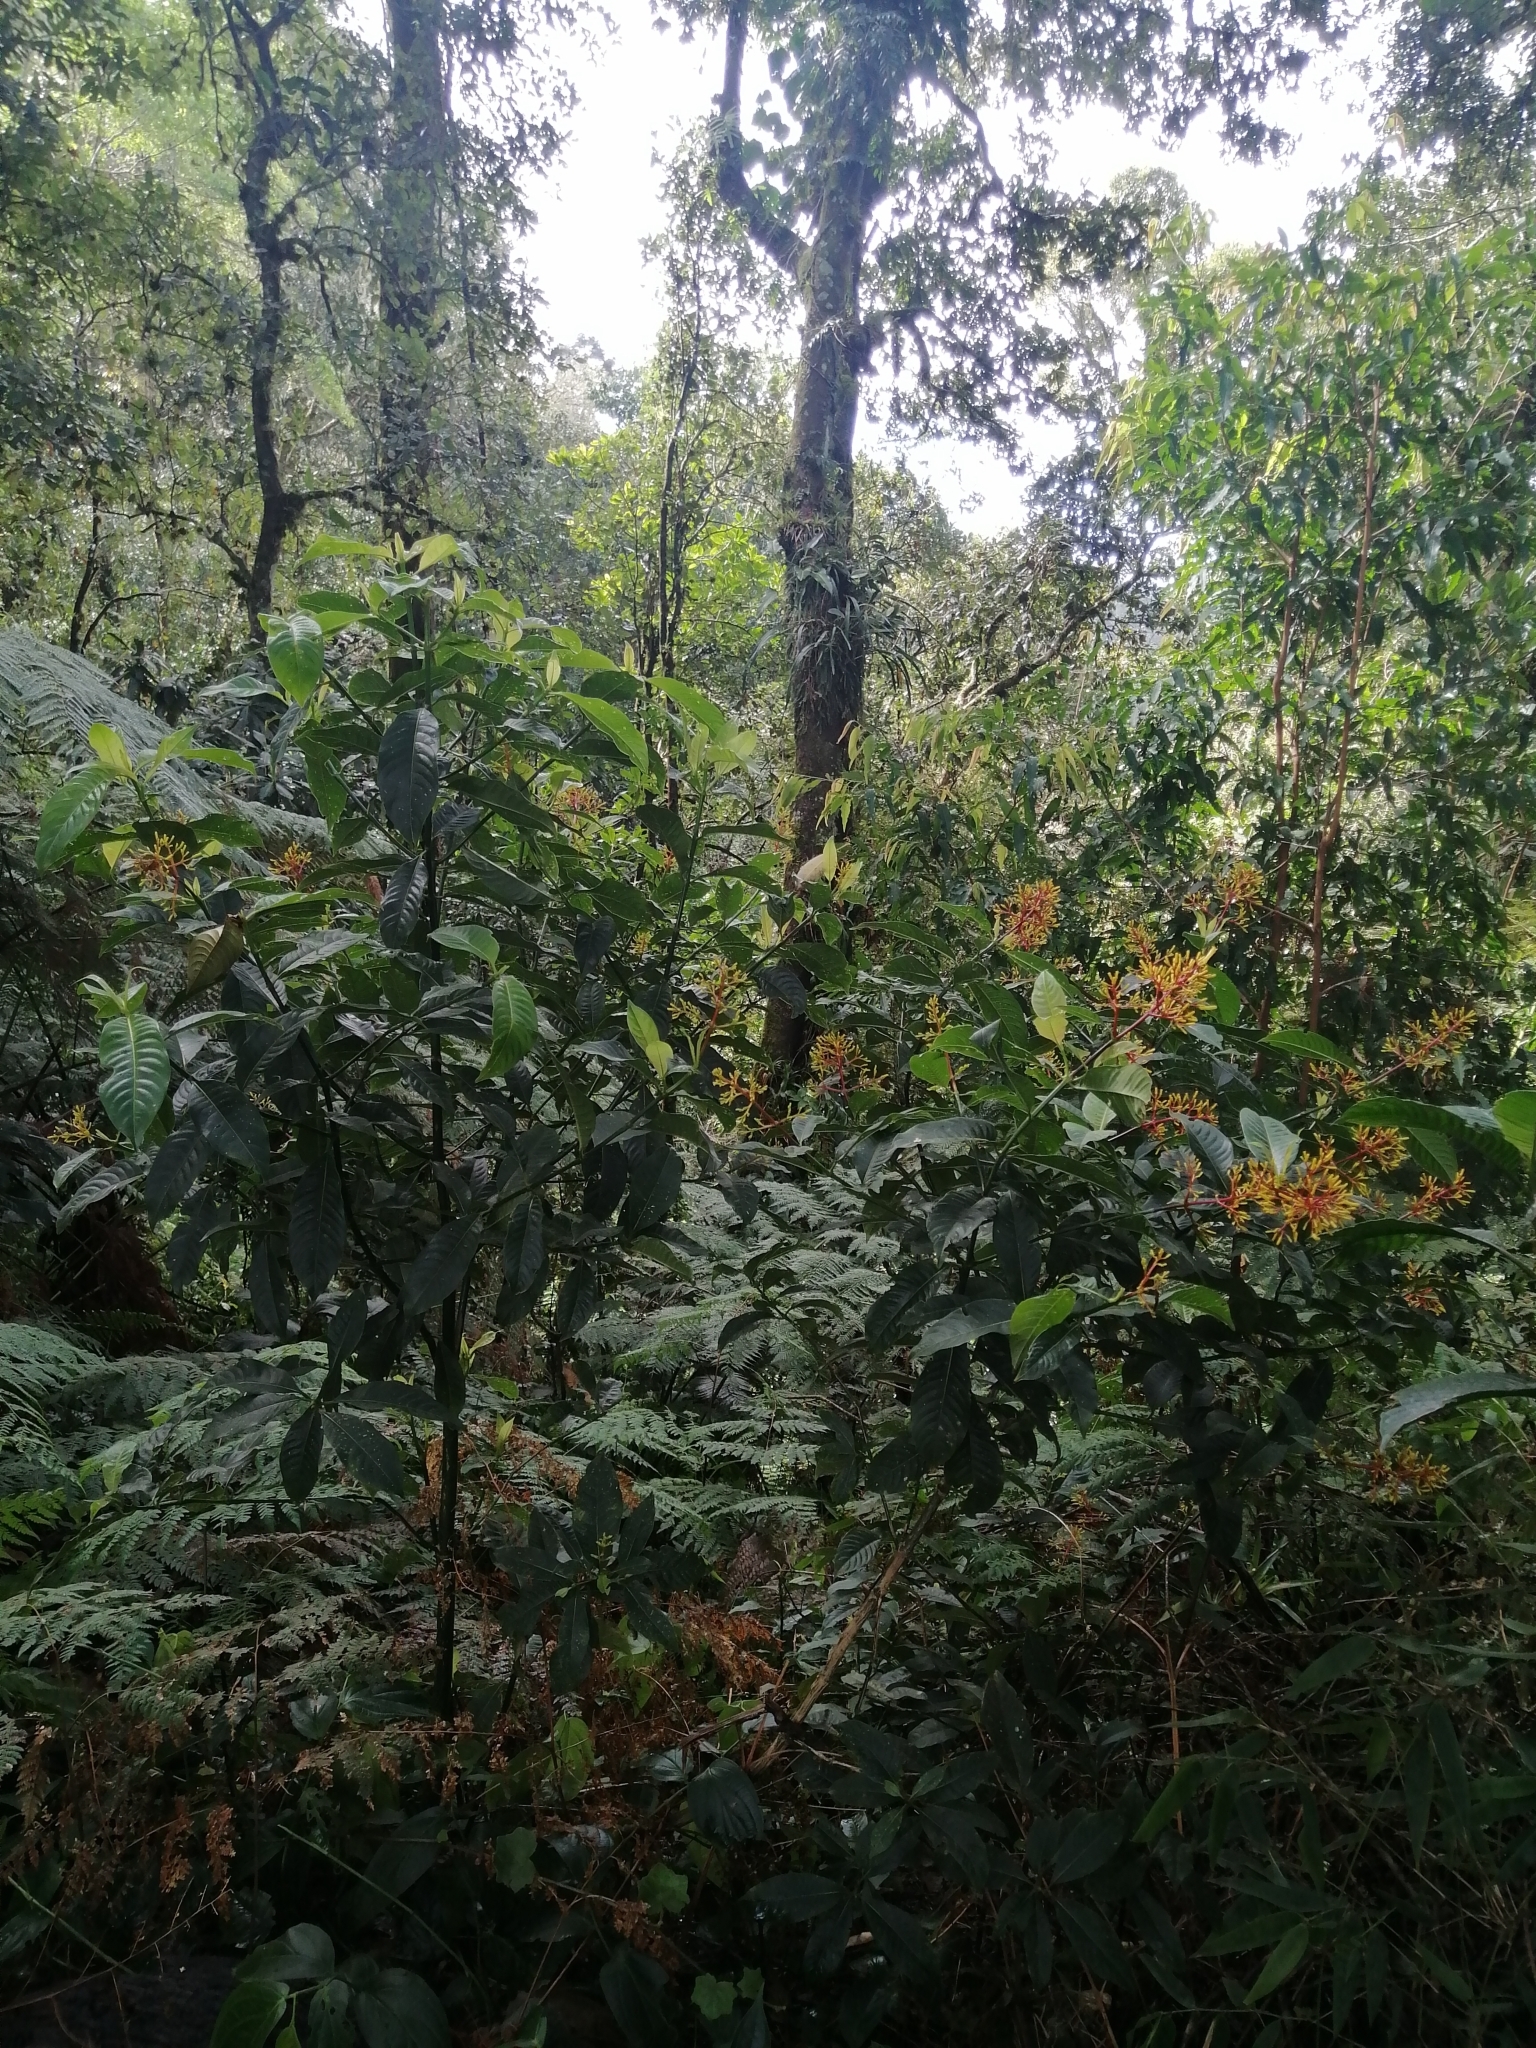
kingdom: Plantae
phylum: Tracheophyta
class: Magnoliopsida
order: Gentianales
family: Rubiaceae
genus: Palicourea
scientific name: Palicourea padifolia
